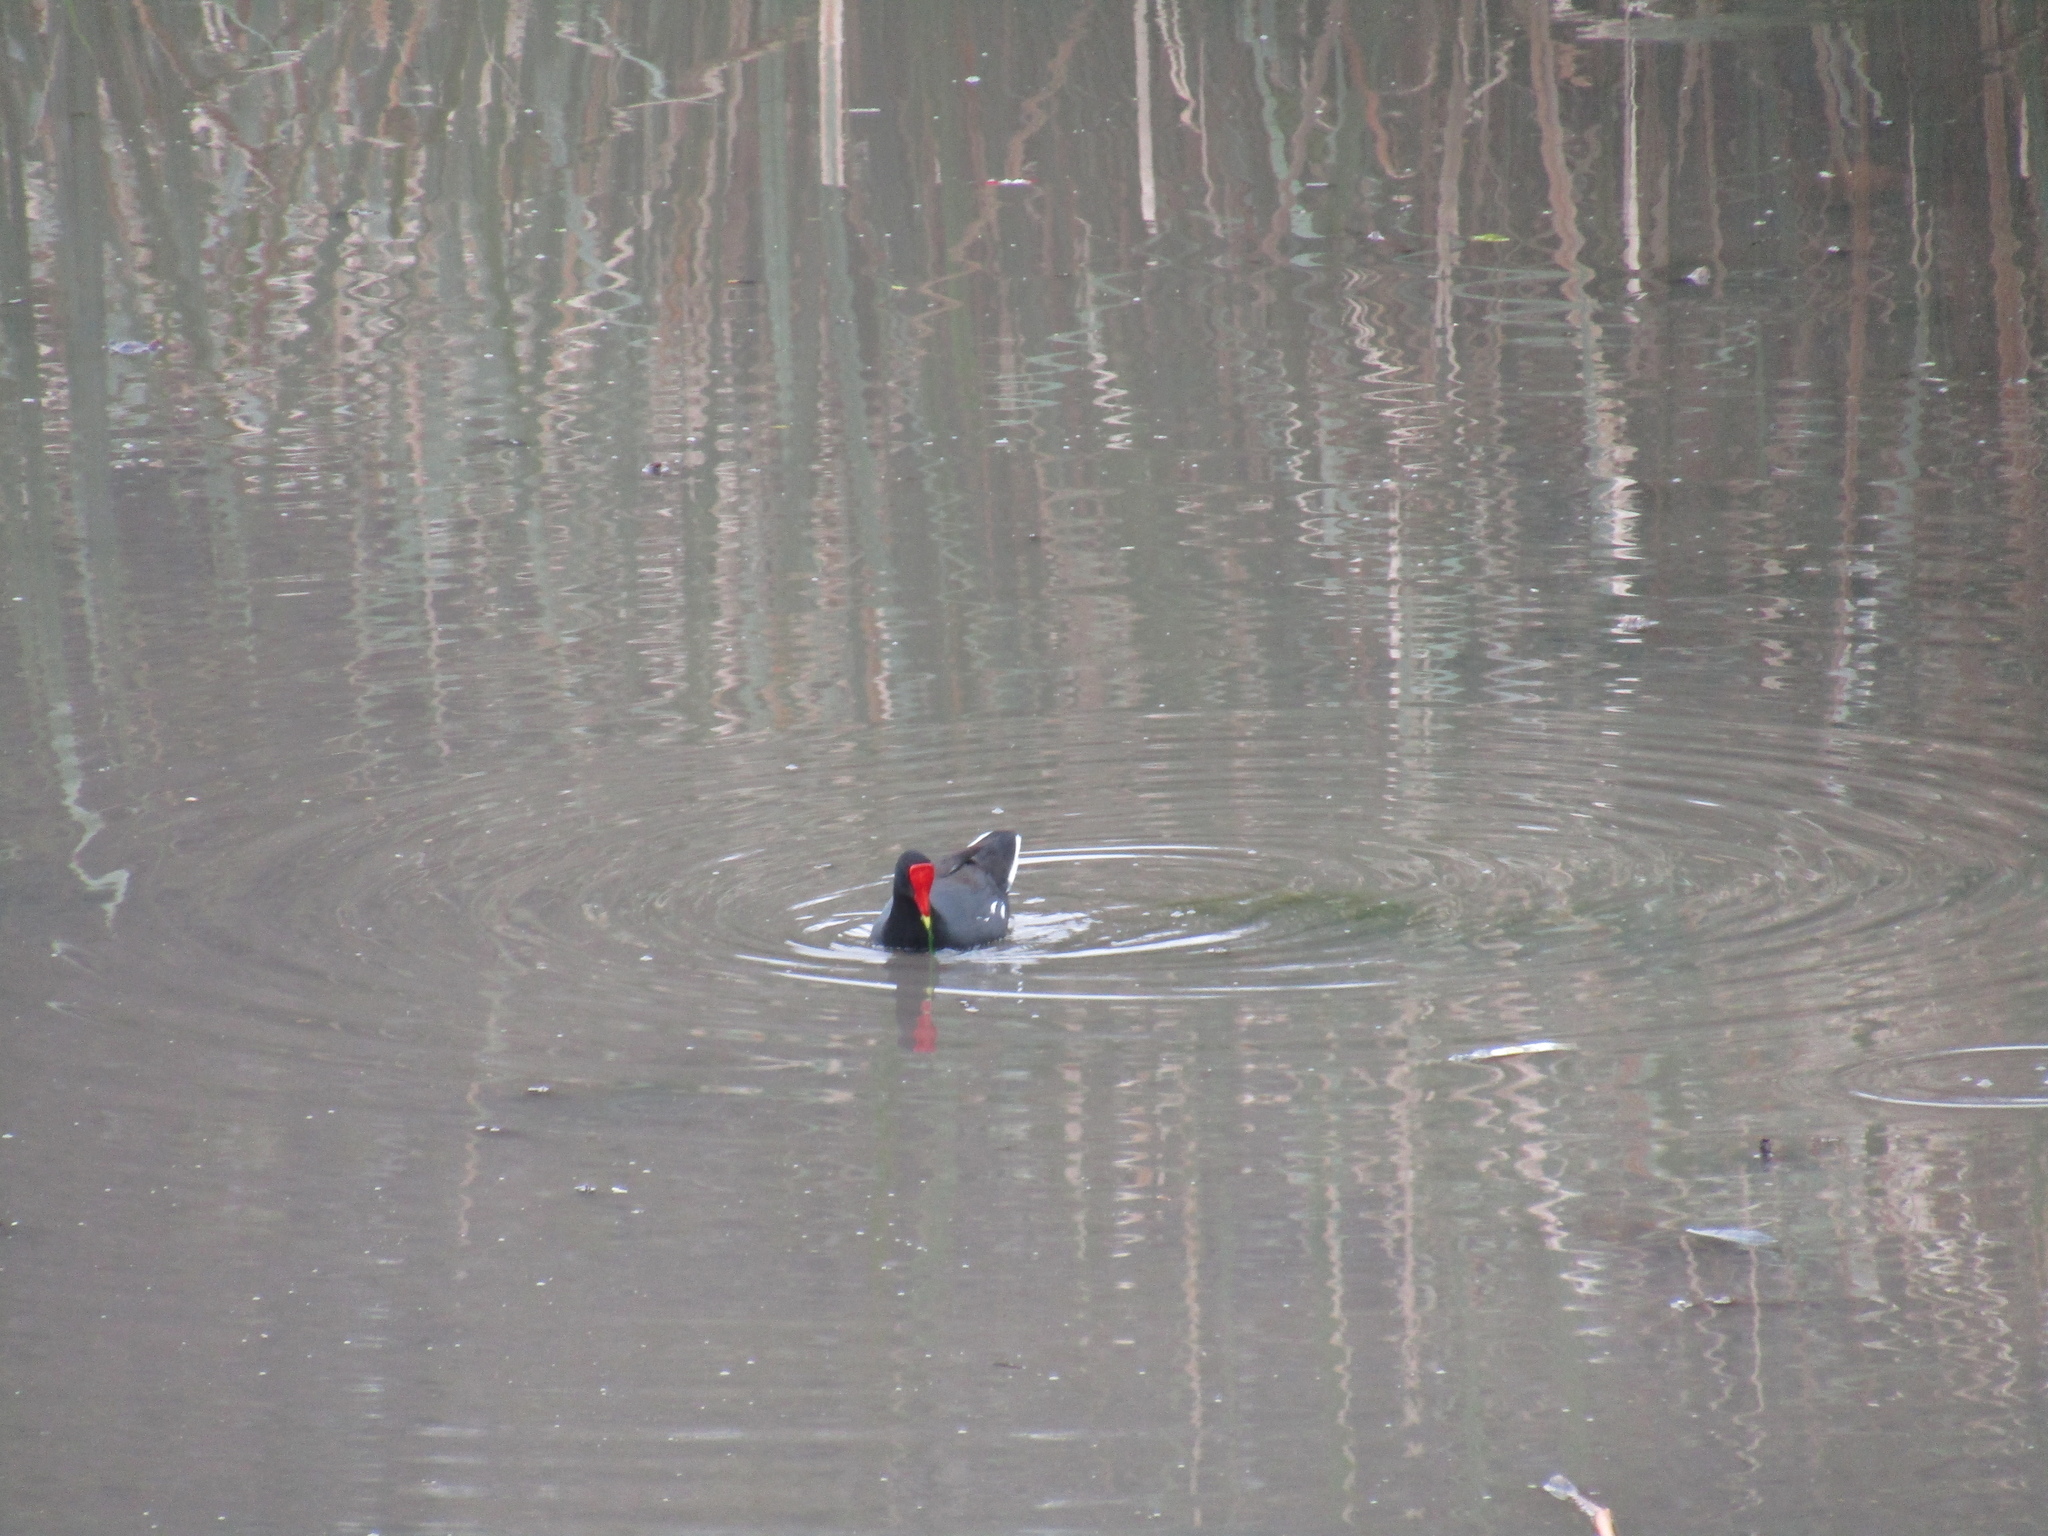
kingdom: Animalia
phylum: Chordata
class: Aves
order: Gruiformes
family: Rallidae
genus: Gallinula
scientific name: Gallinula chloropus
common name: Common moorhen
